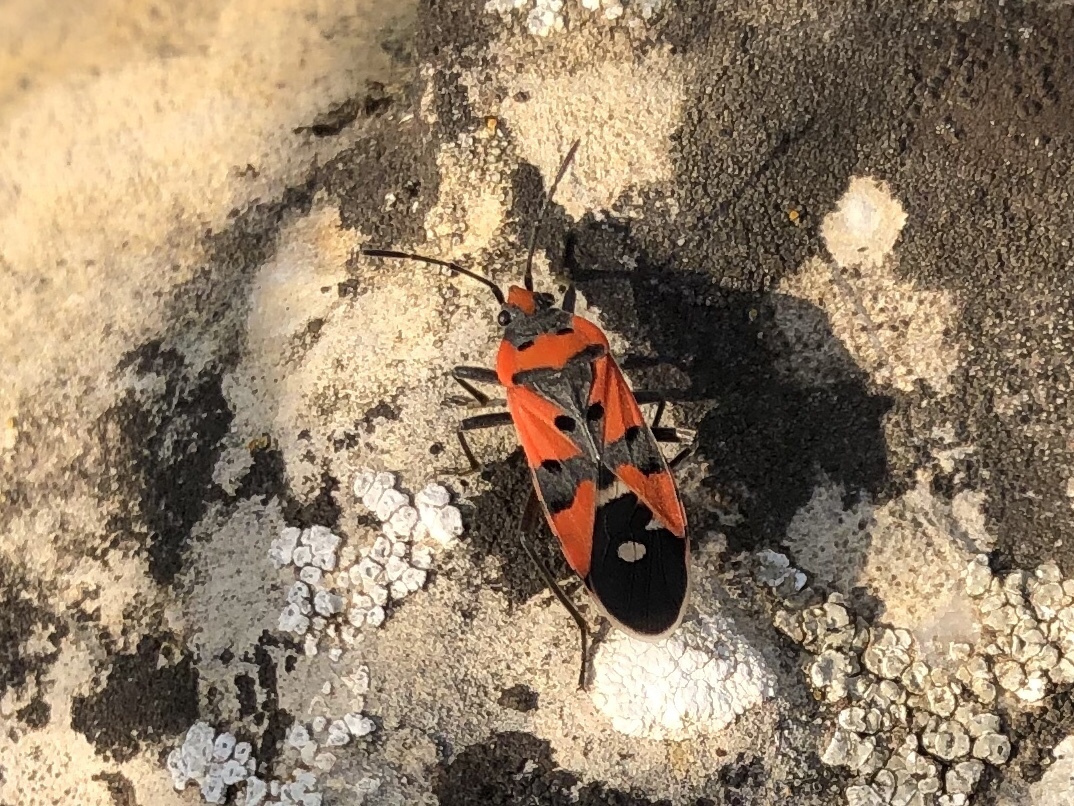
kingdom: Animalia
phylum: Arthropoda
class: Insecta
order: Hemiptera
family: Lygaeidae
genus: Lygaeus
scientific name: Lygaeus equestris
